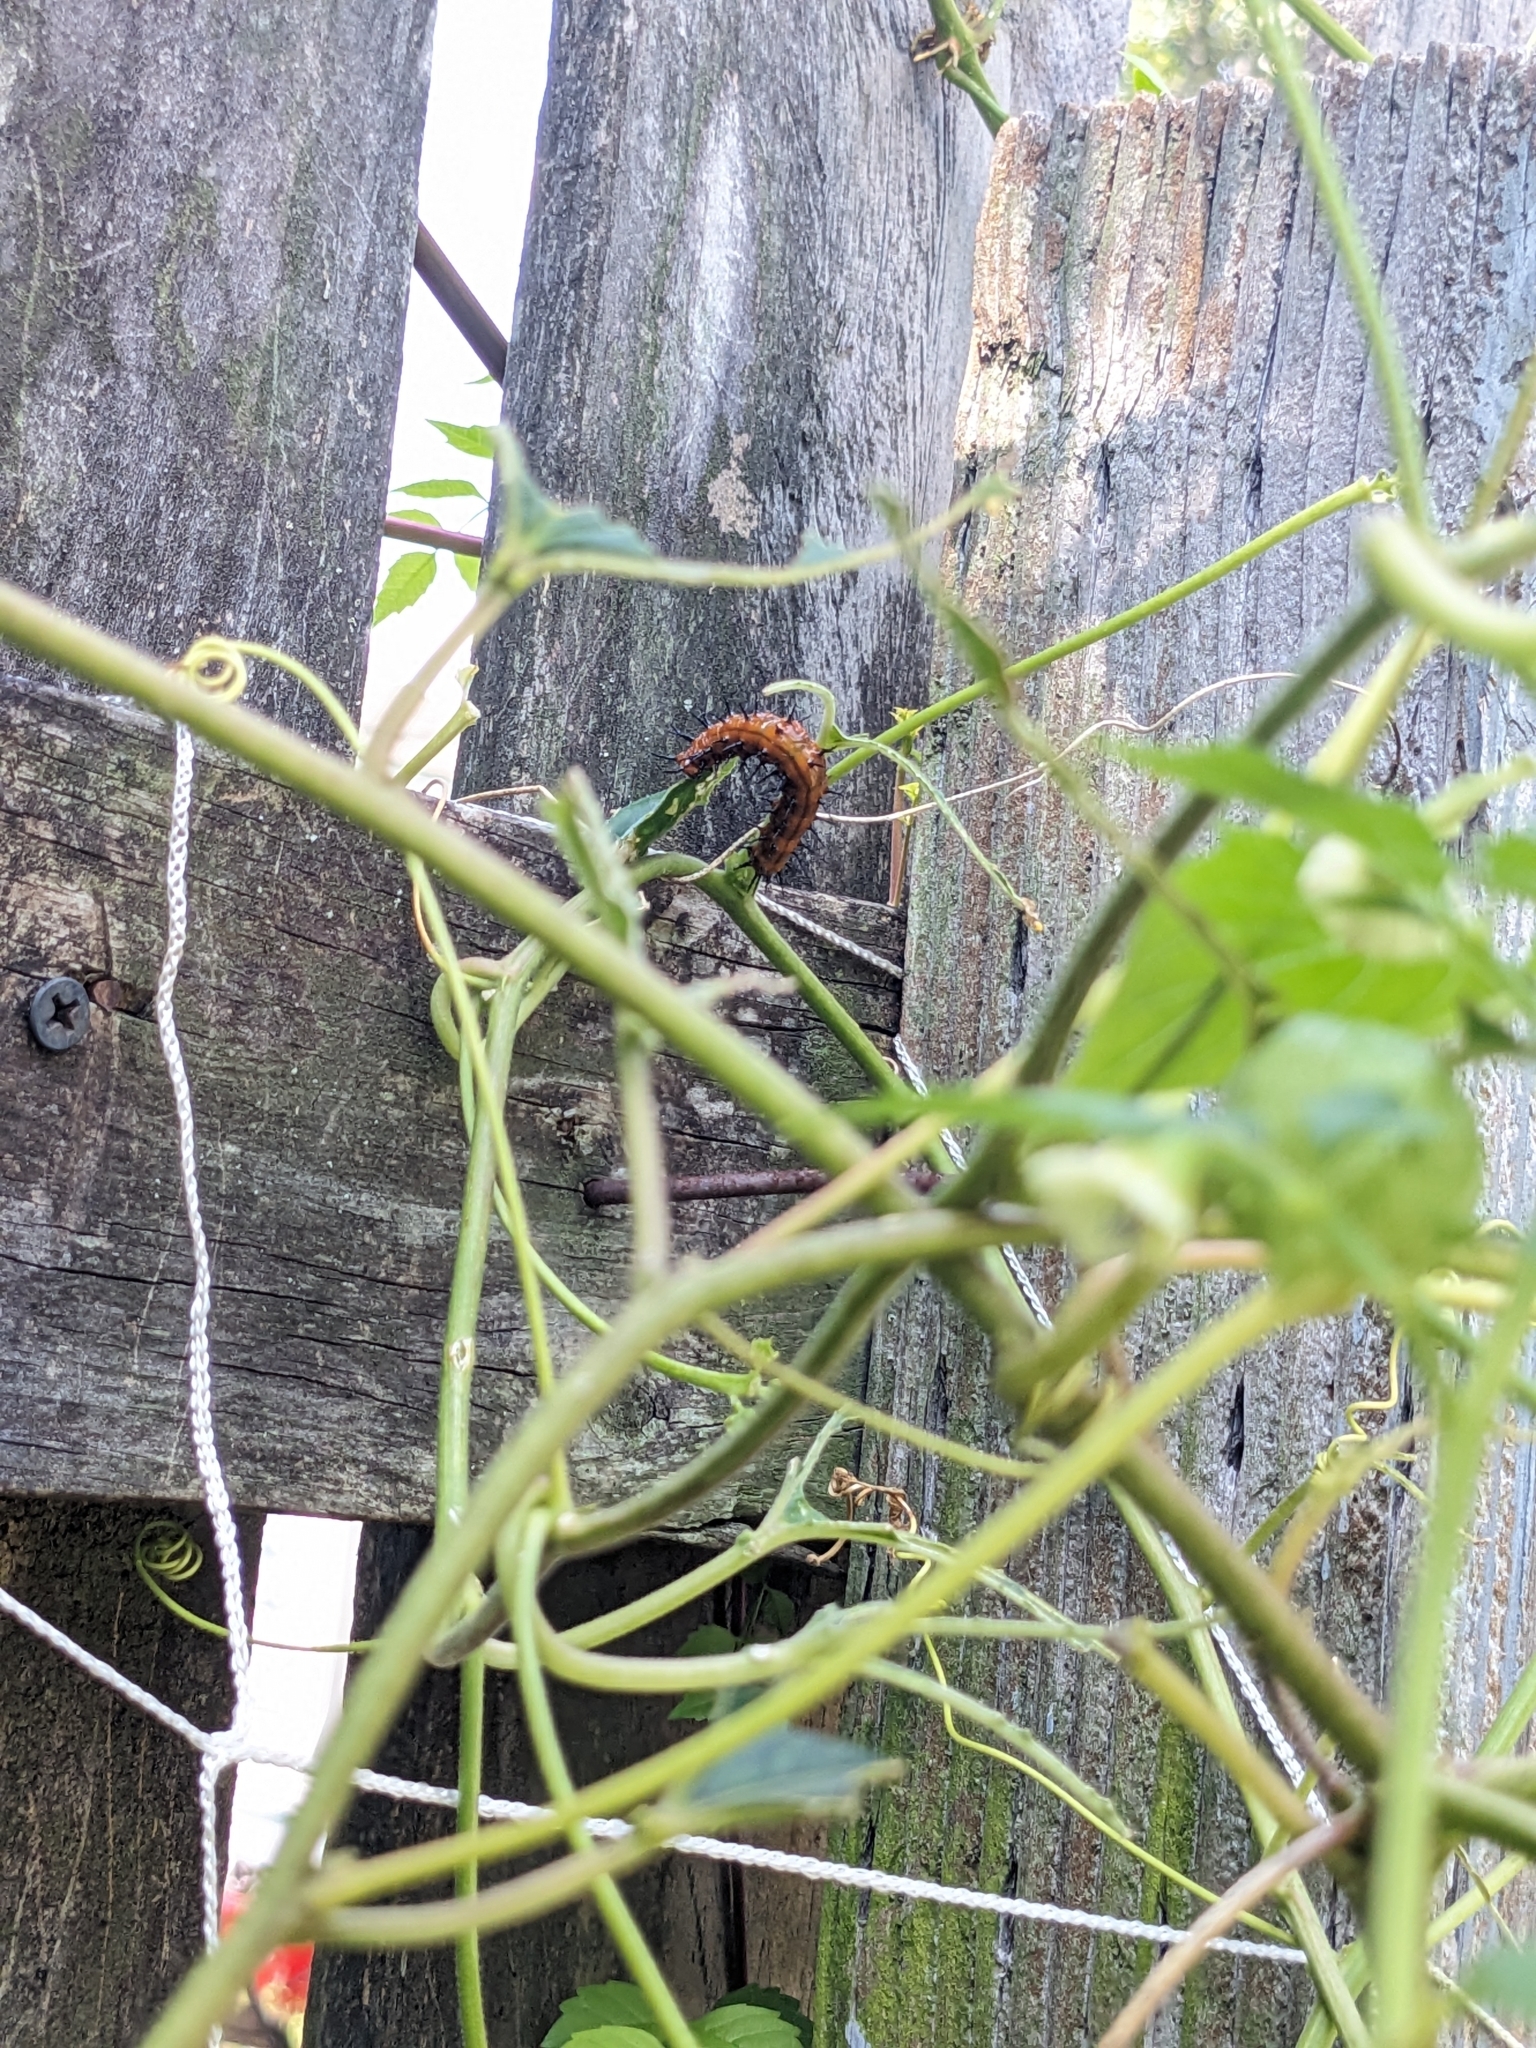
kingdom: Animalia
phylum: Arthropoda
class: Insecta
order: Lepidoptera
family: Nymphalidae
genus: Dione
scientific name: Dione vanillae
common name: Gulf fritillary
